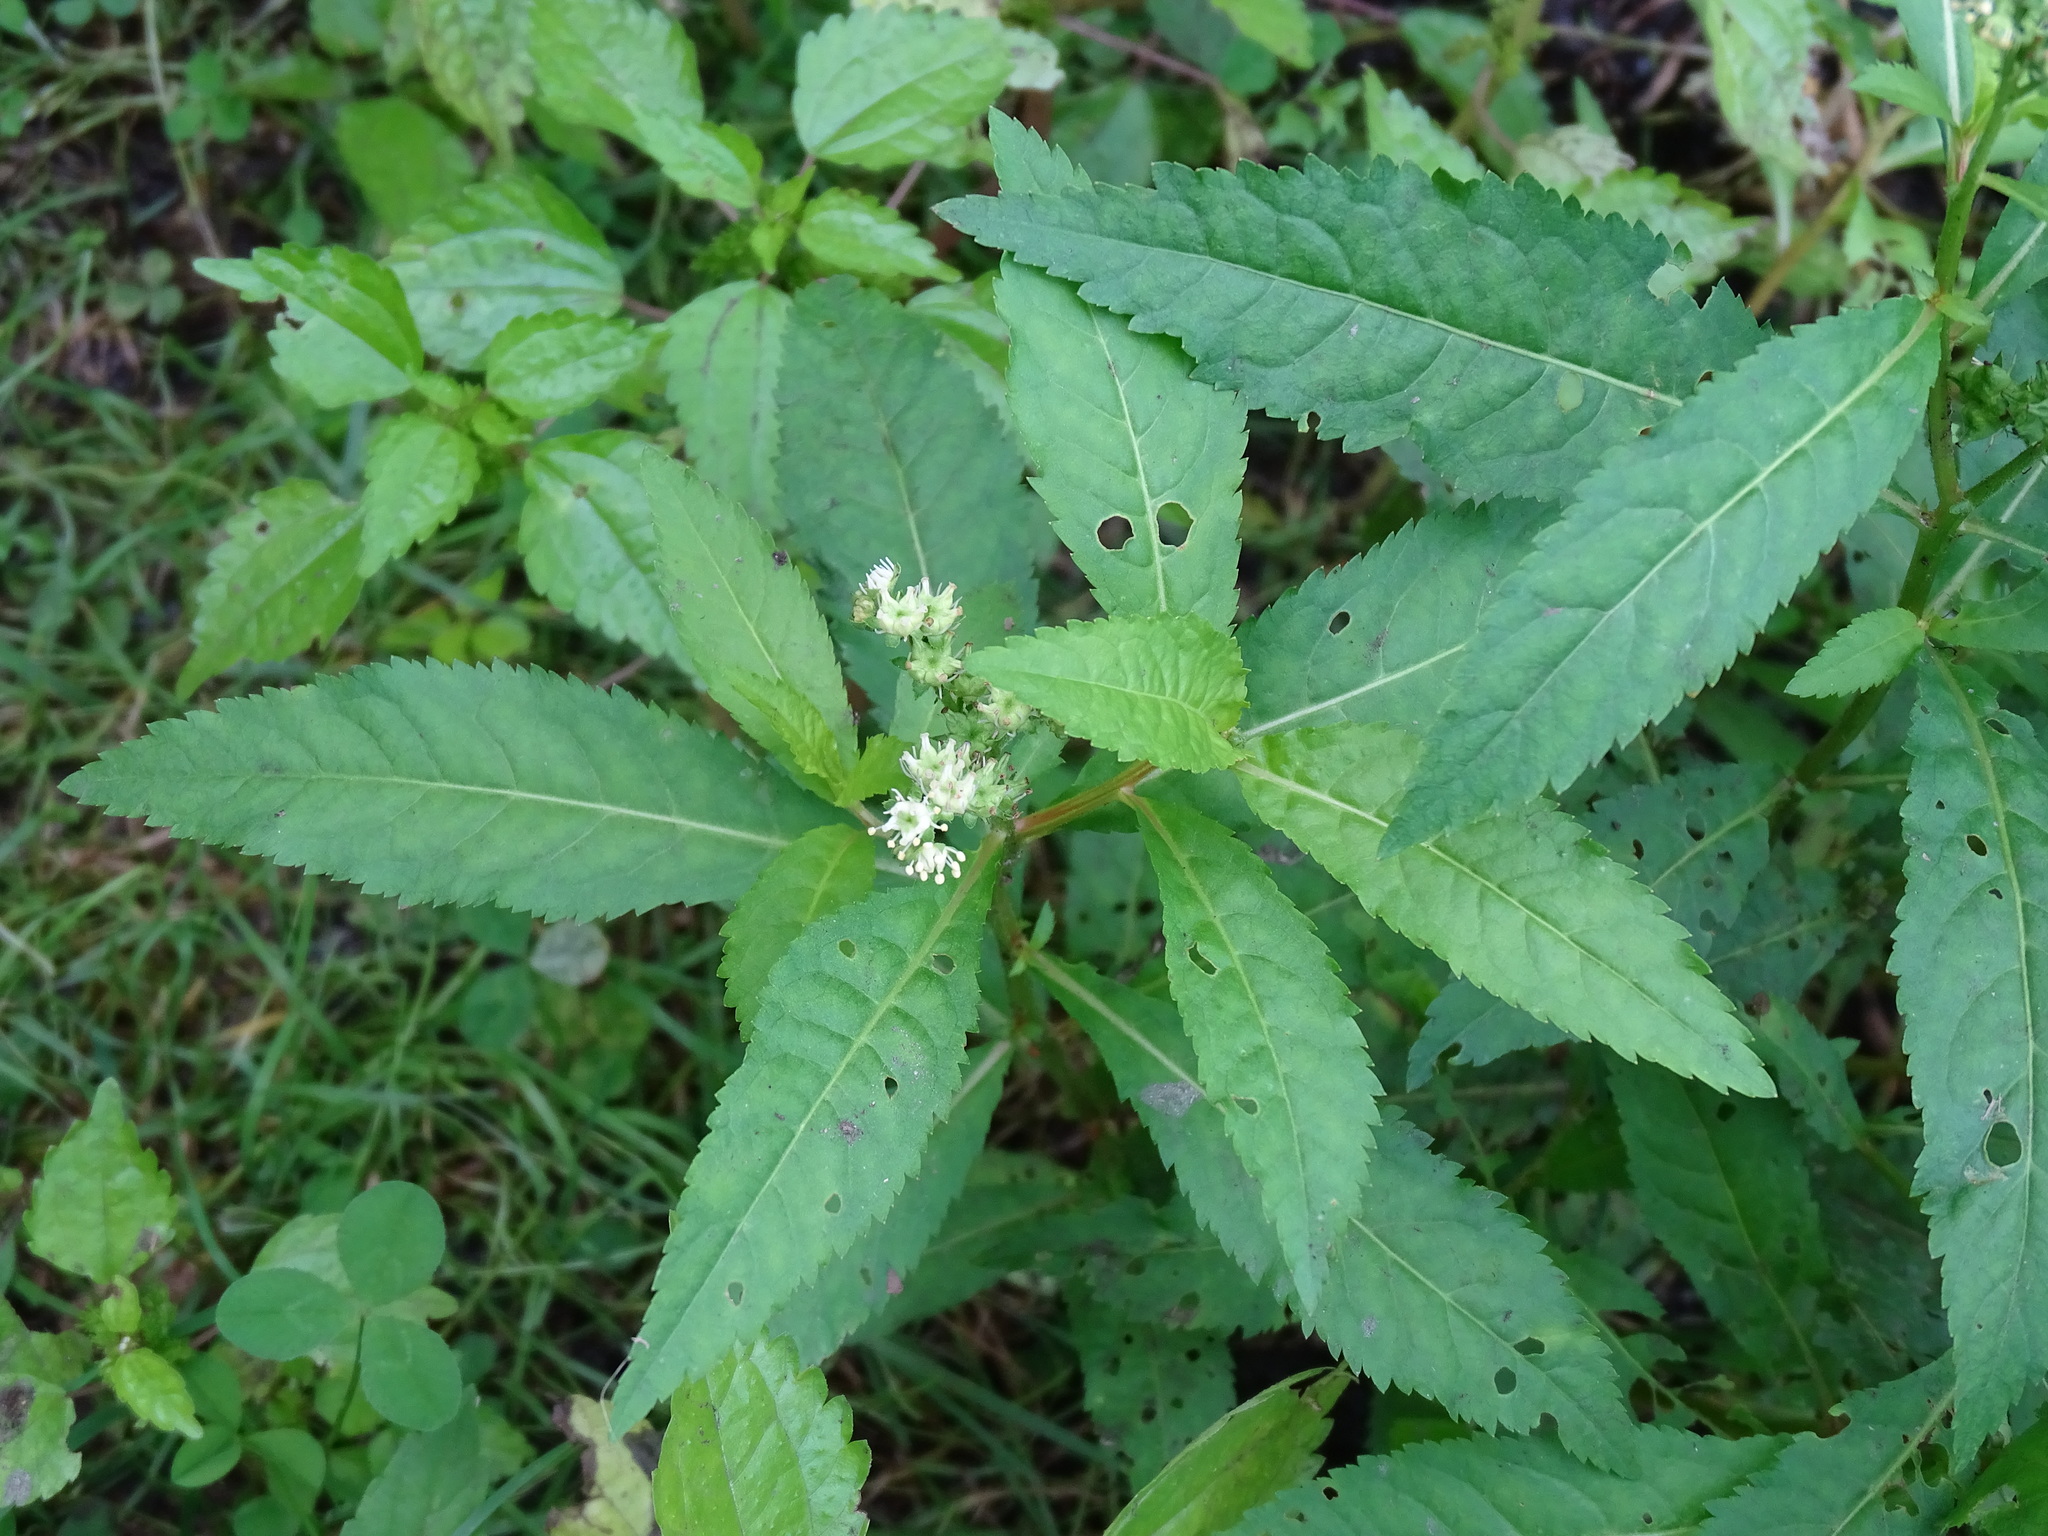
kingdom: Plantae
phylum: Tracheophyta
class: Magnoliopsida
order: Saxifragales
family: Penthoraceae
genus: Penthorum
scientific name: Penthorum sedoides
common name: Ditch stonecrop
